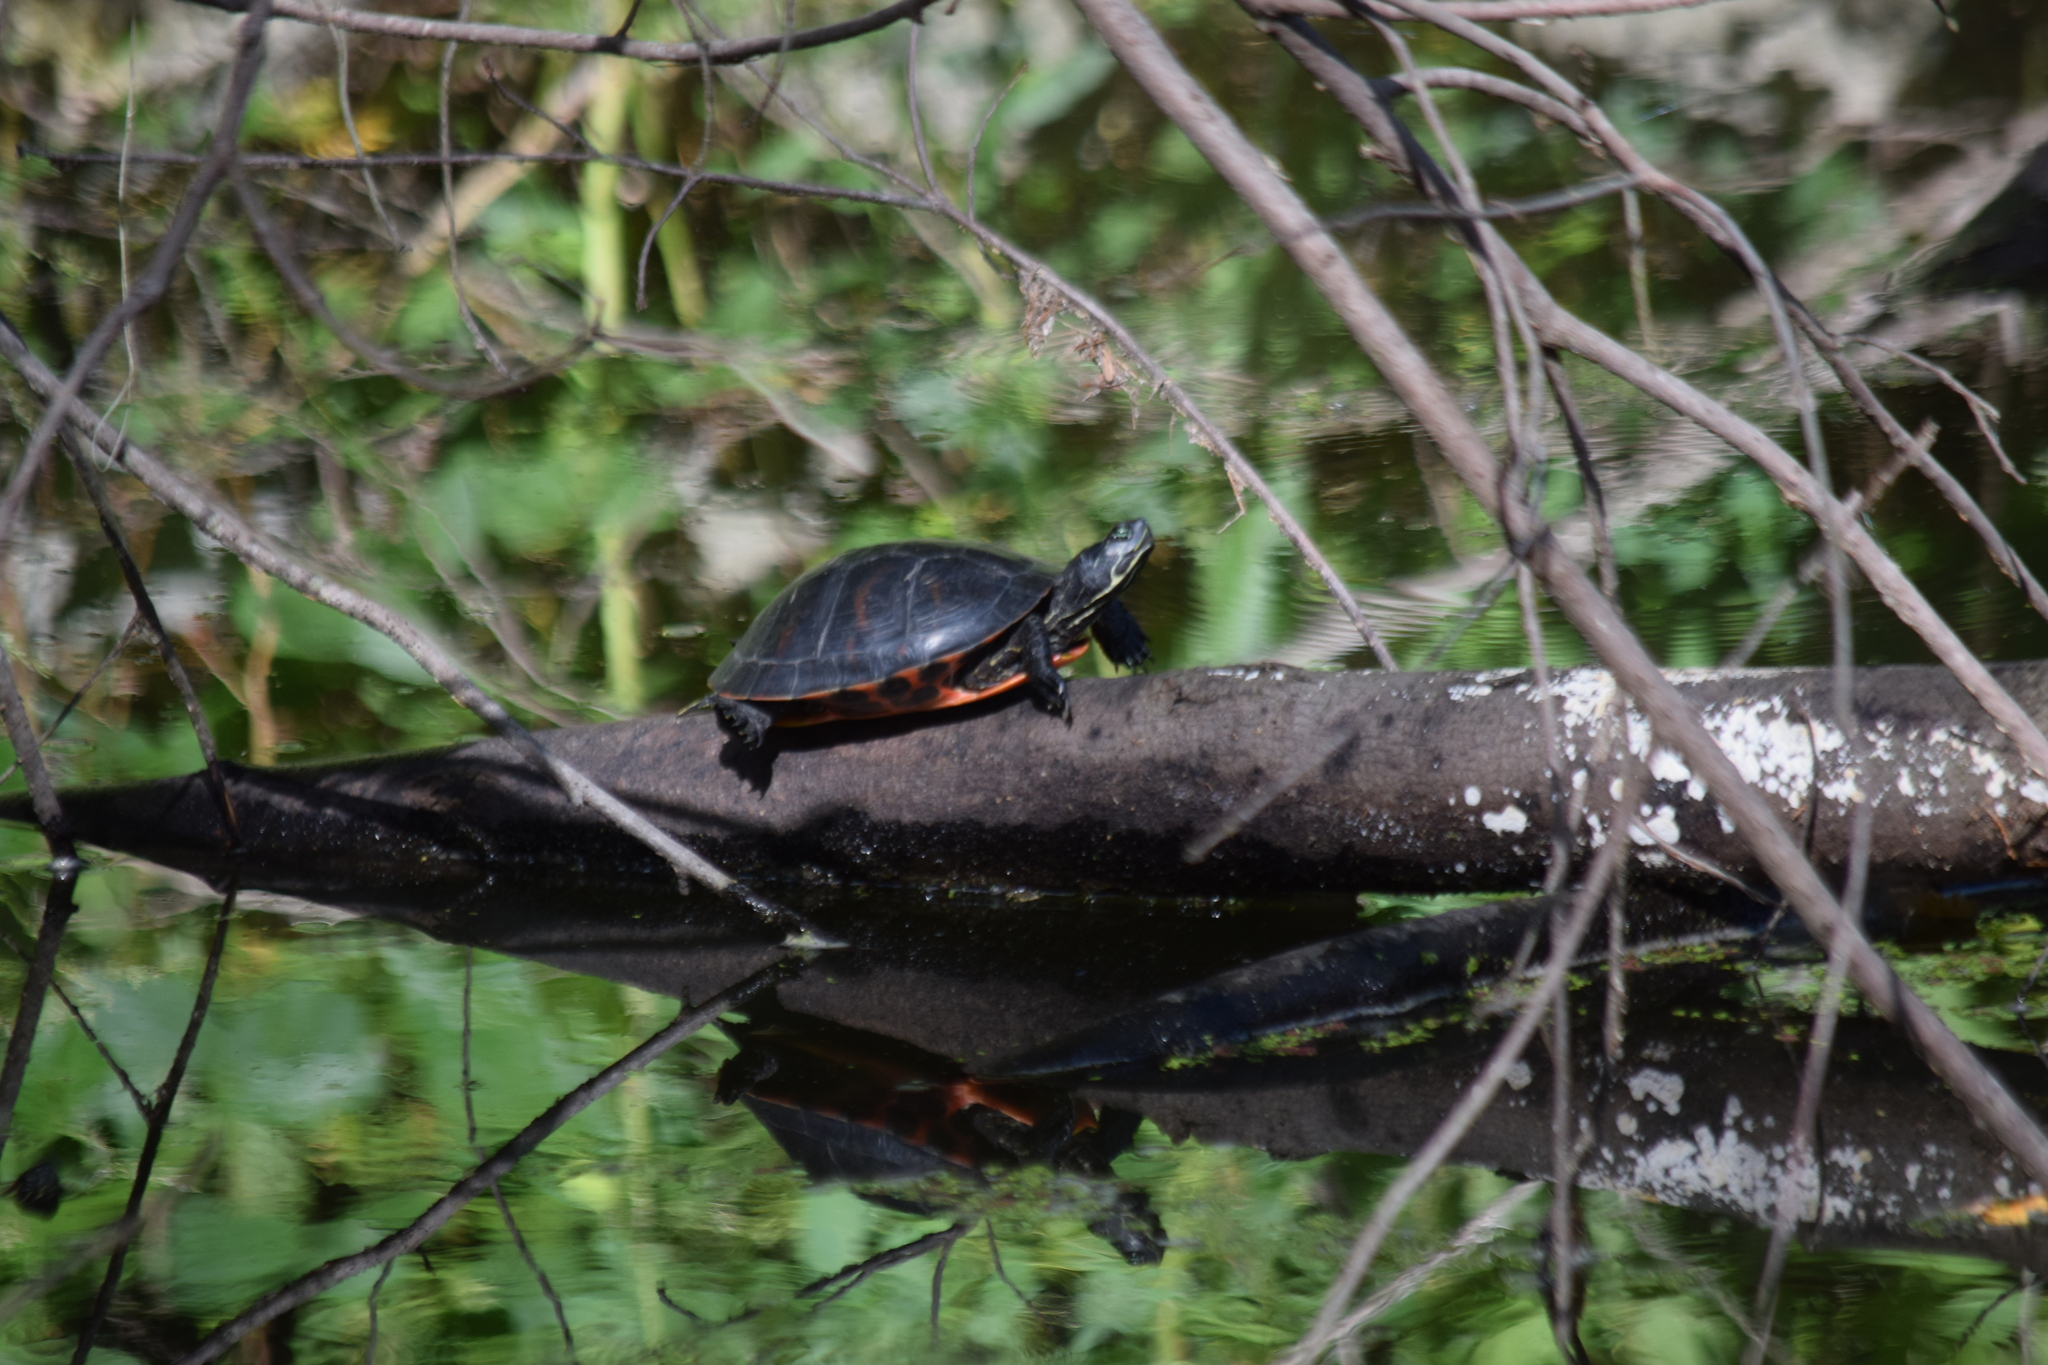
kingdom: Animalia
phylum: Chordata
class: Testudines
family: Emydidae
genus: Pseudemys
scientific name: Pseudemys rubriventris
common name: American red-bellied turtle
